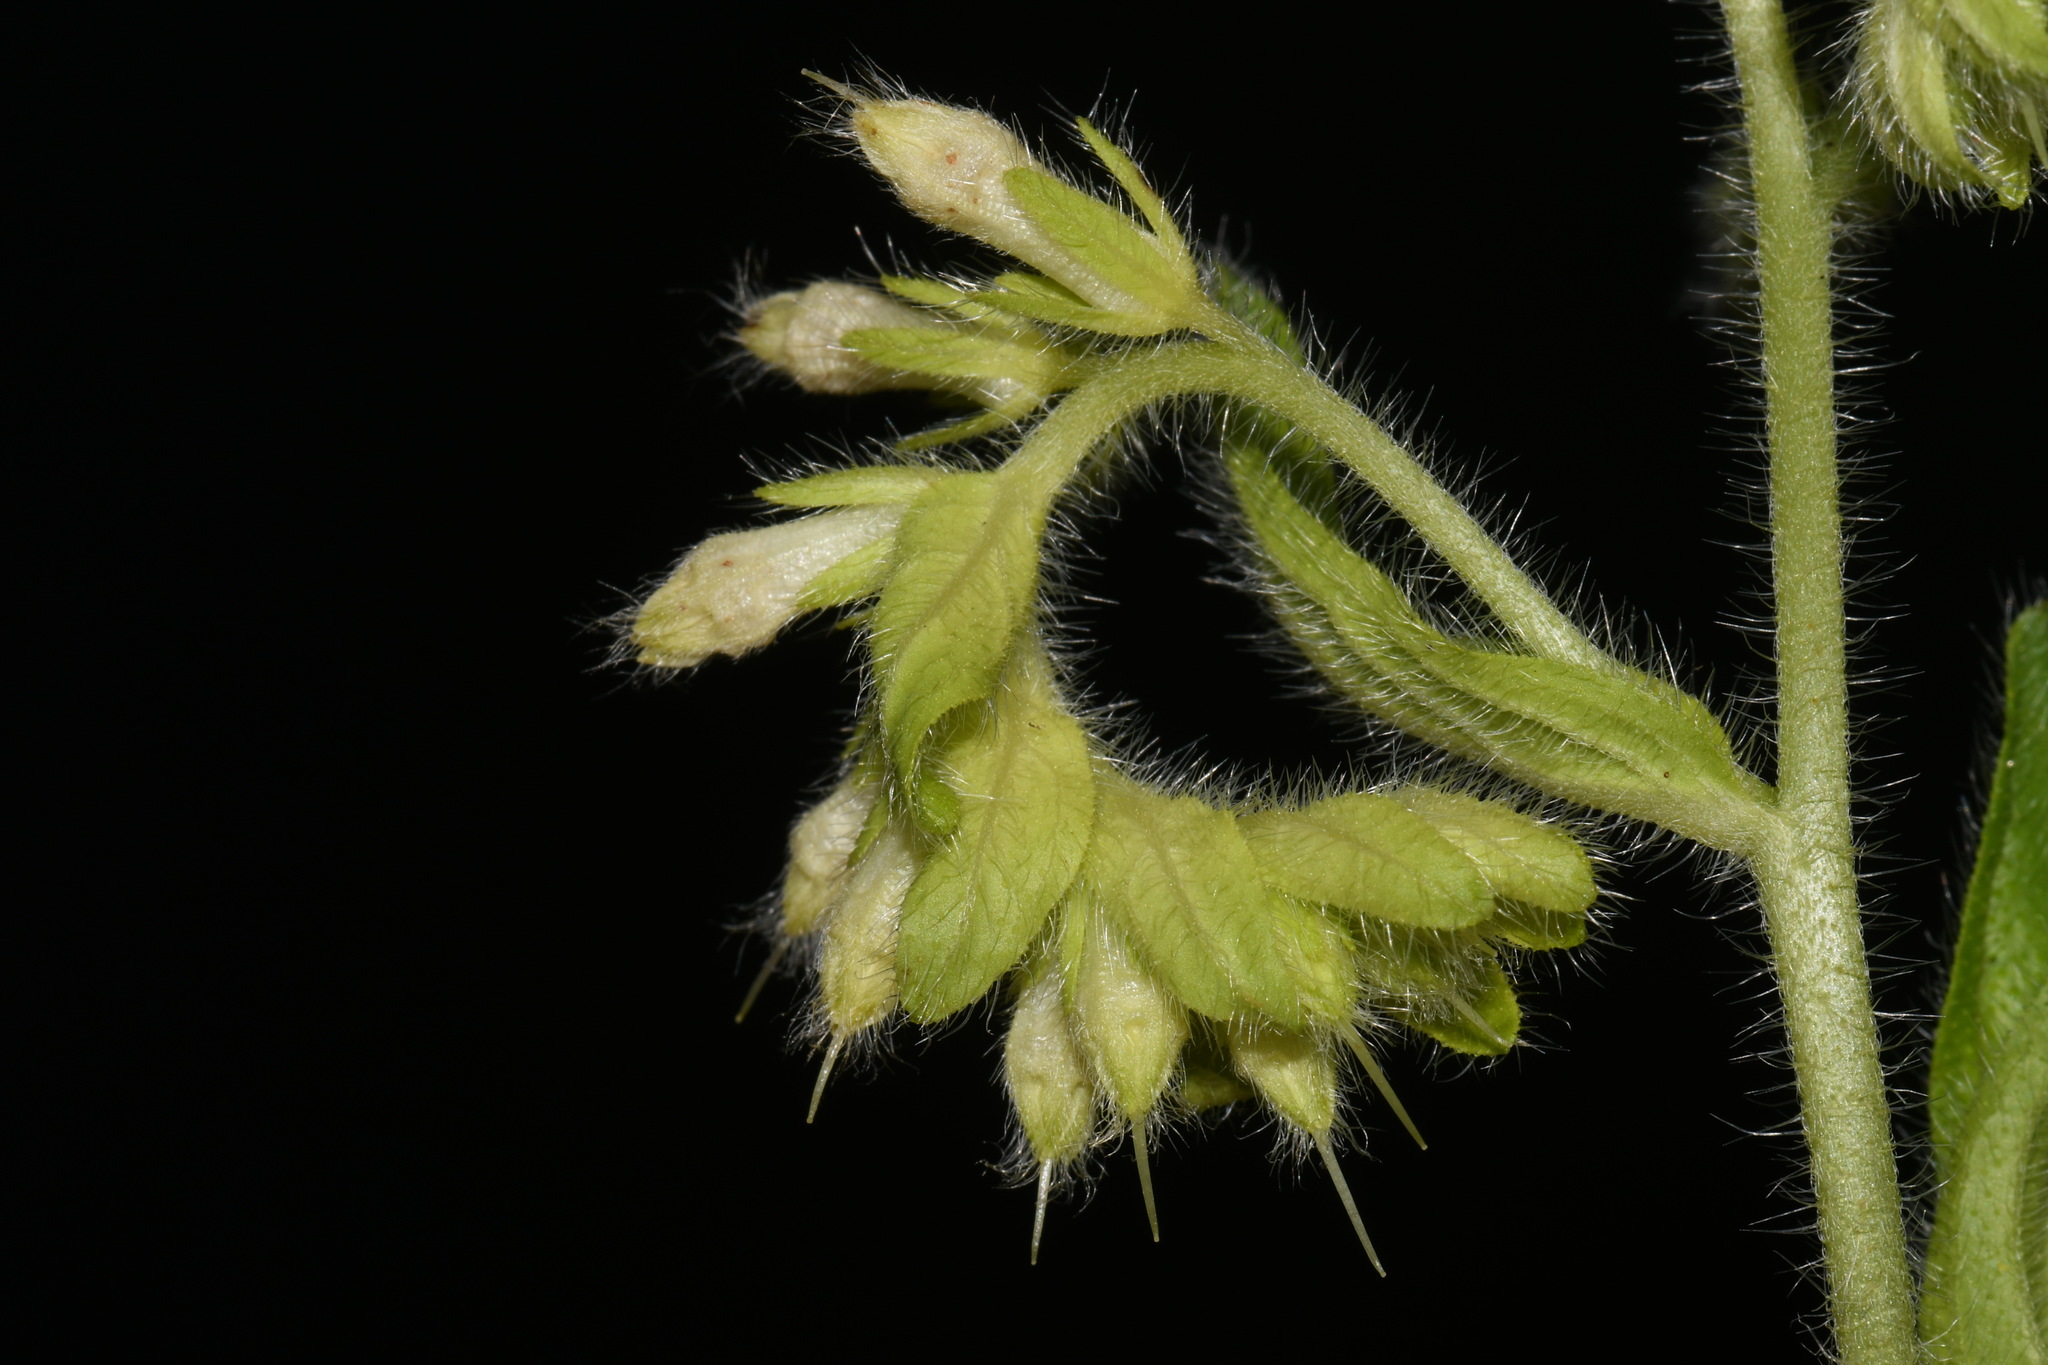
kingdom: Plantae
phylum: Tracheophyta
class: Magnoliopsida
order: Boraginales
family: Boraginaceae
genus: Lithospermum
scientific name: Lithospermum decipiens
